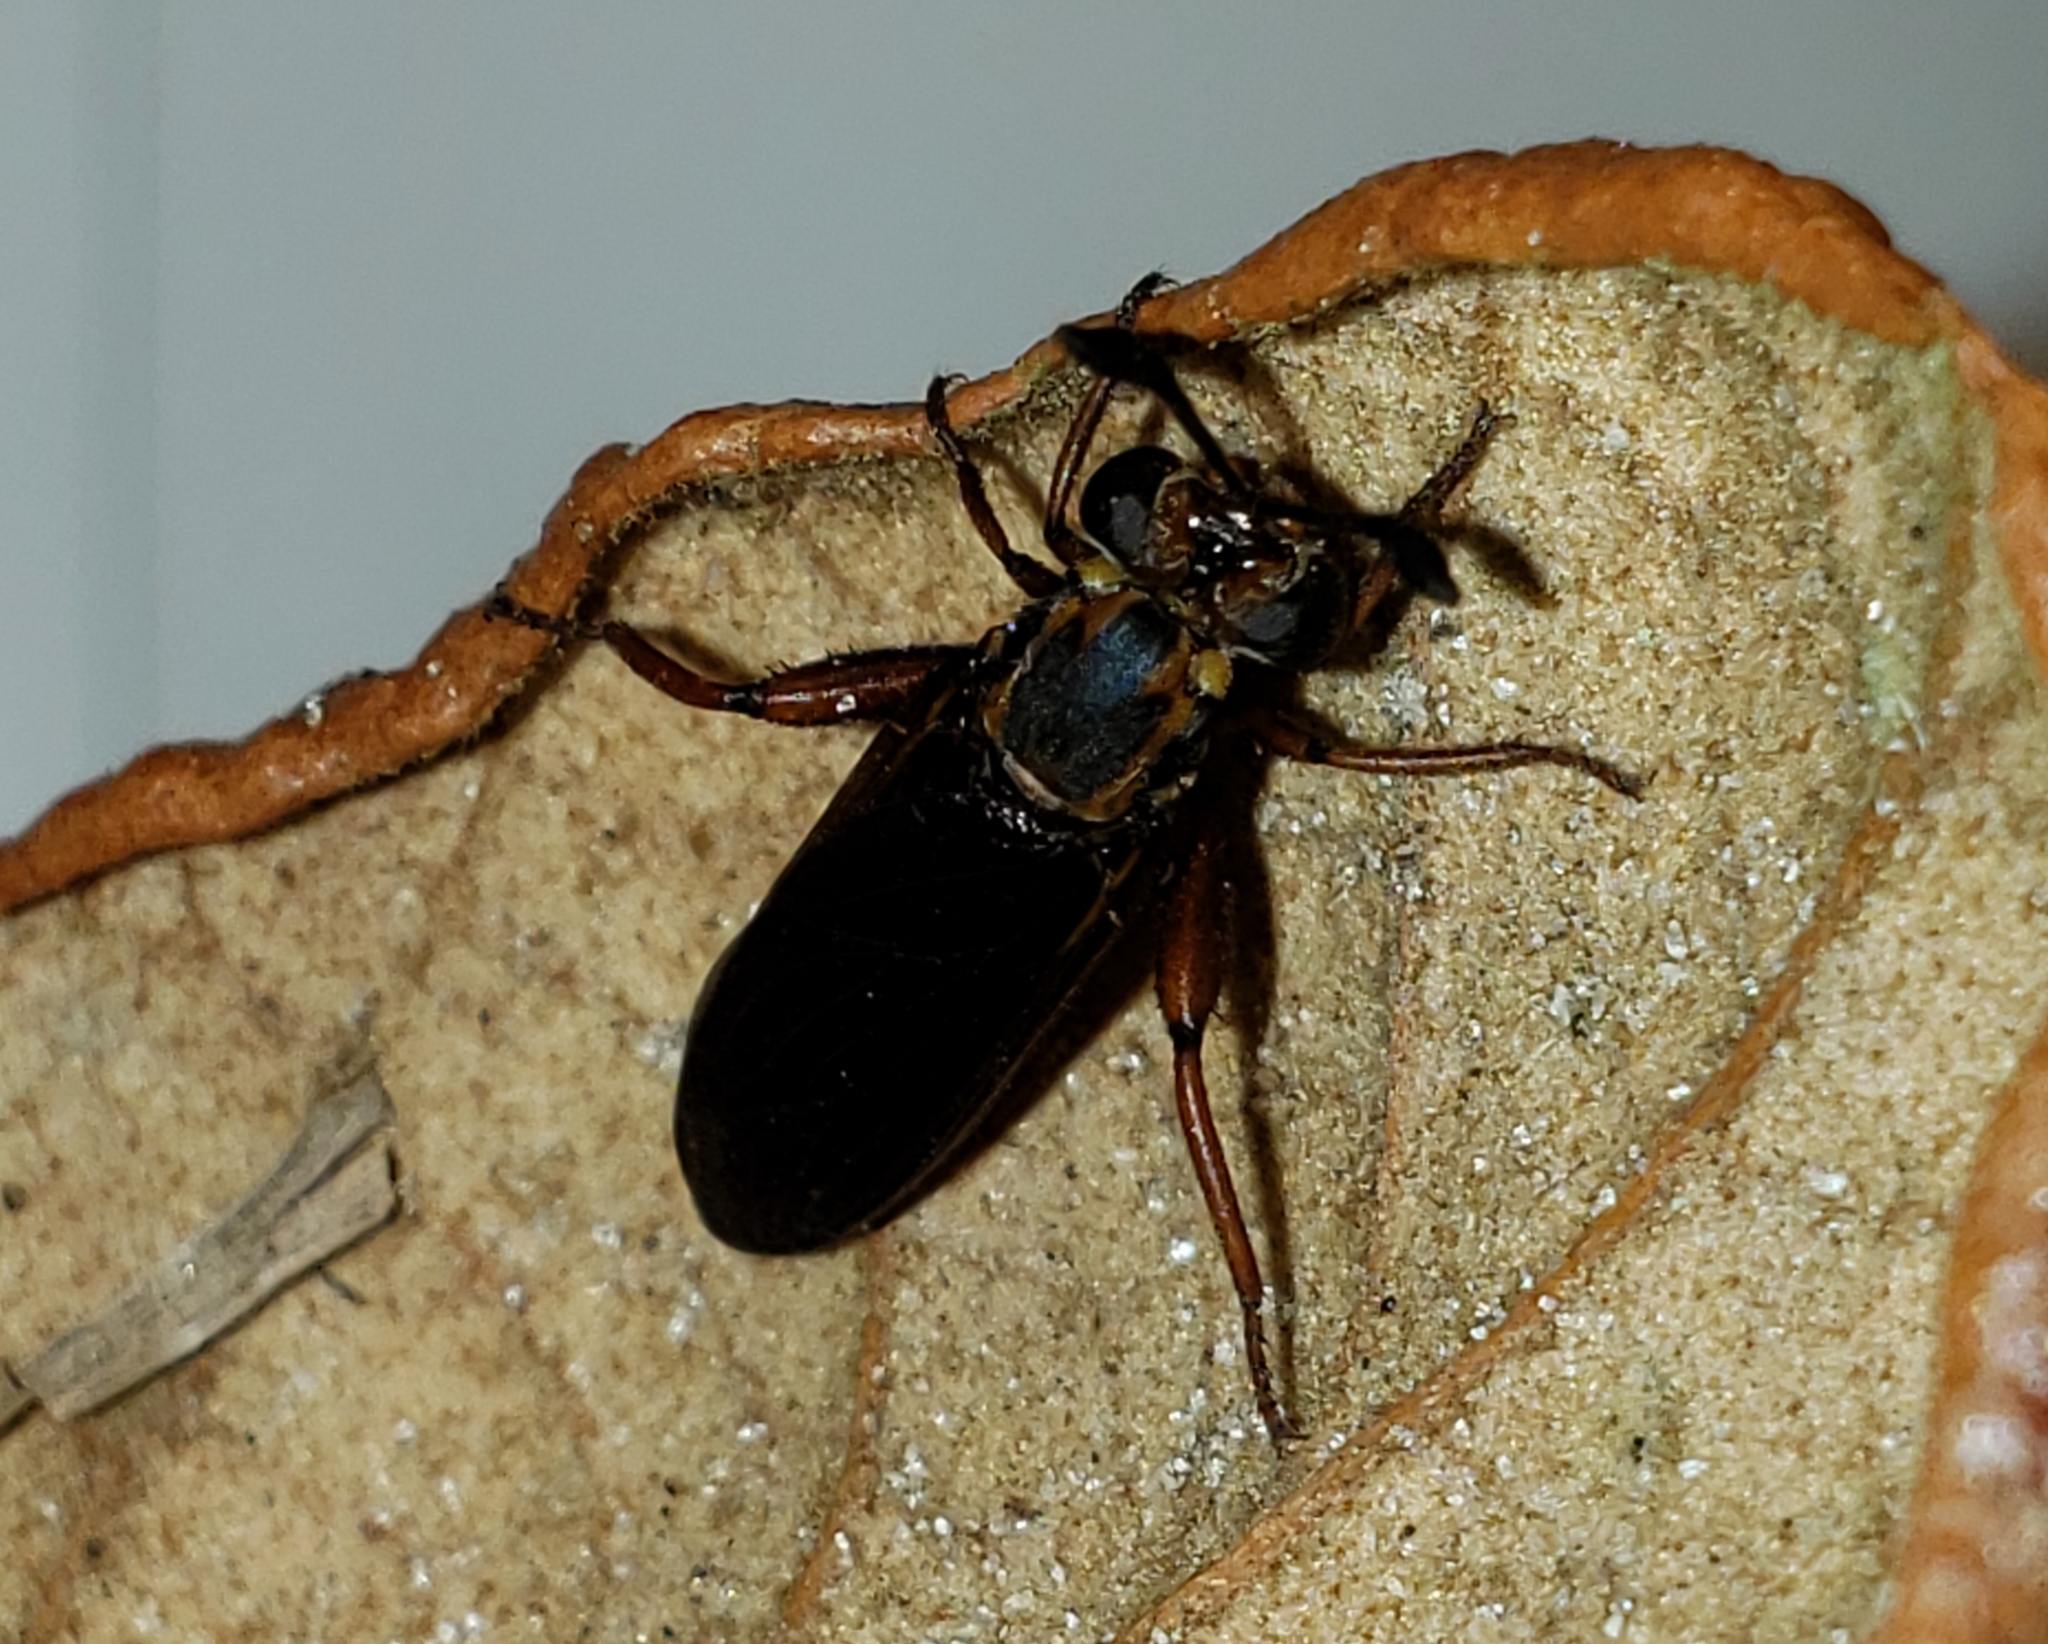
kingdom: Animalia
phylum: Arthropoda
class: Insecta
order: Diptera
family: Mydidae
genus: Phyllomydas
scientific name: Phyllomydas parvulus
